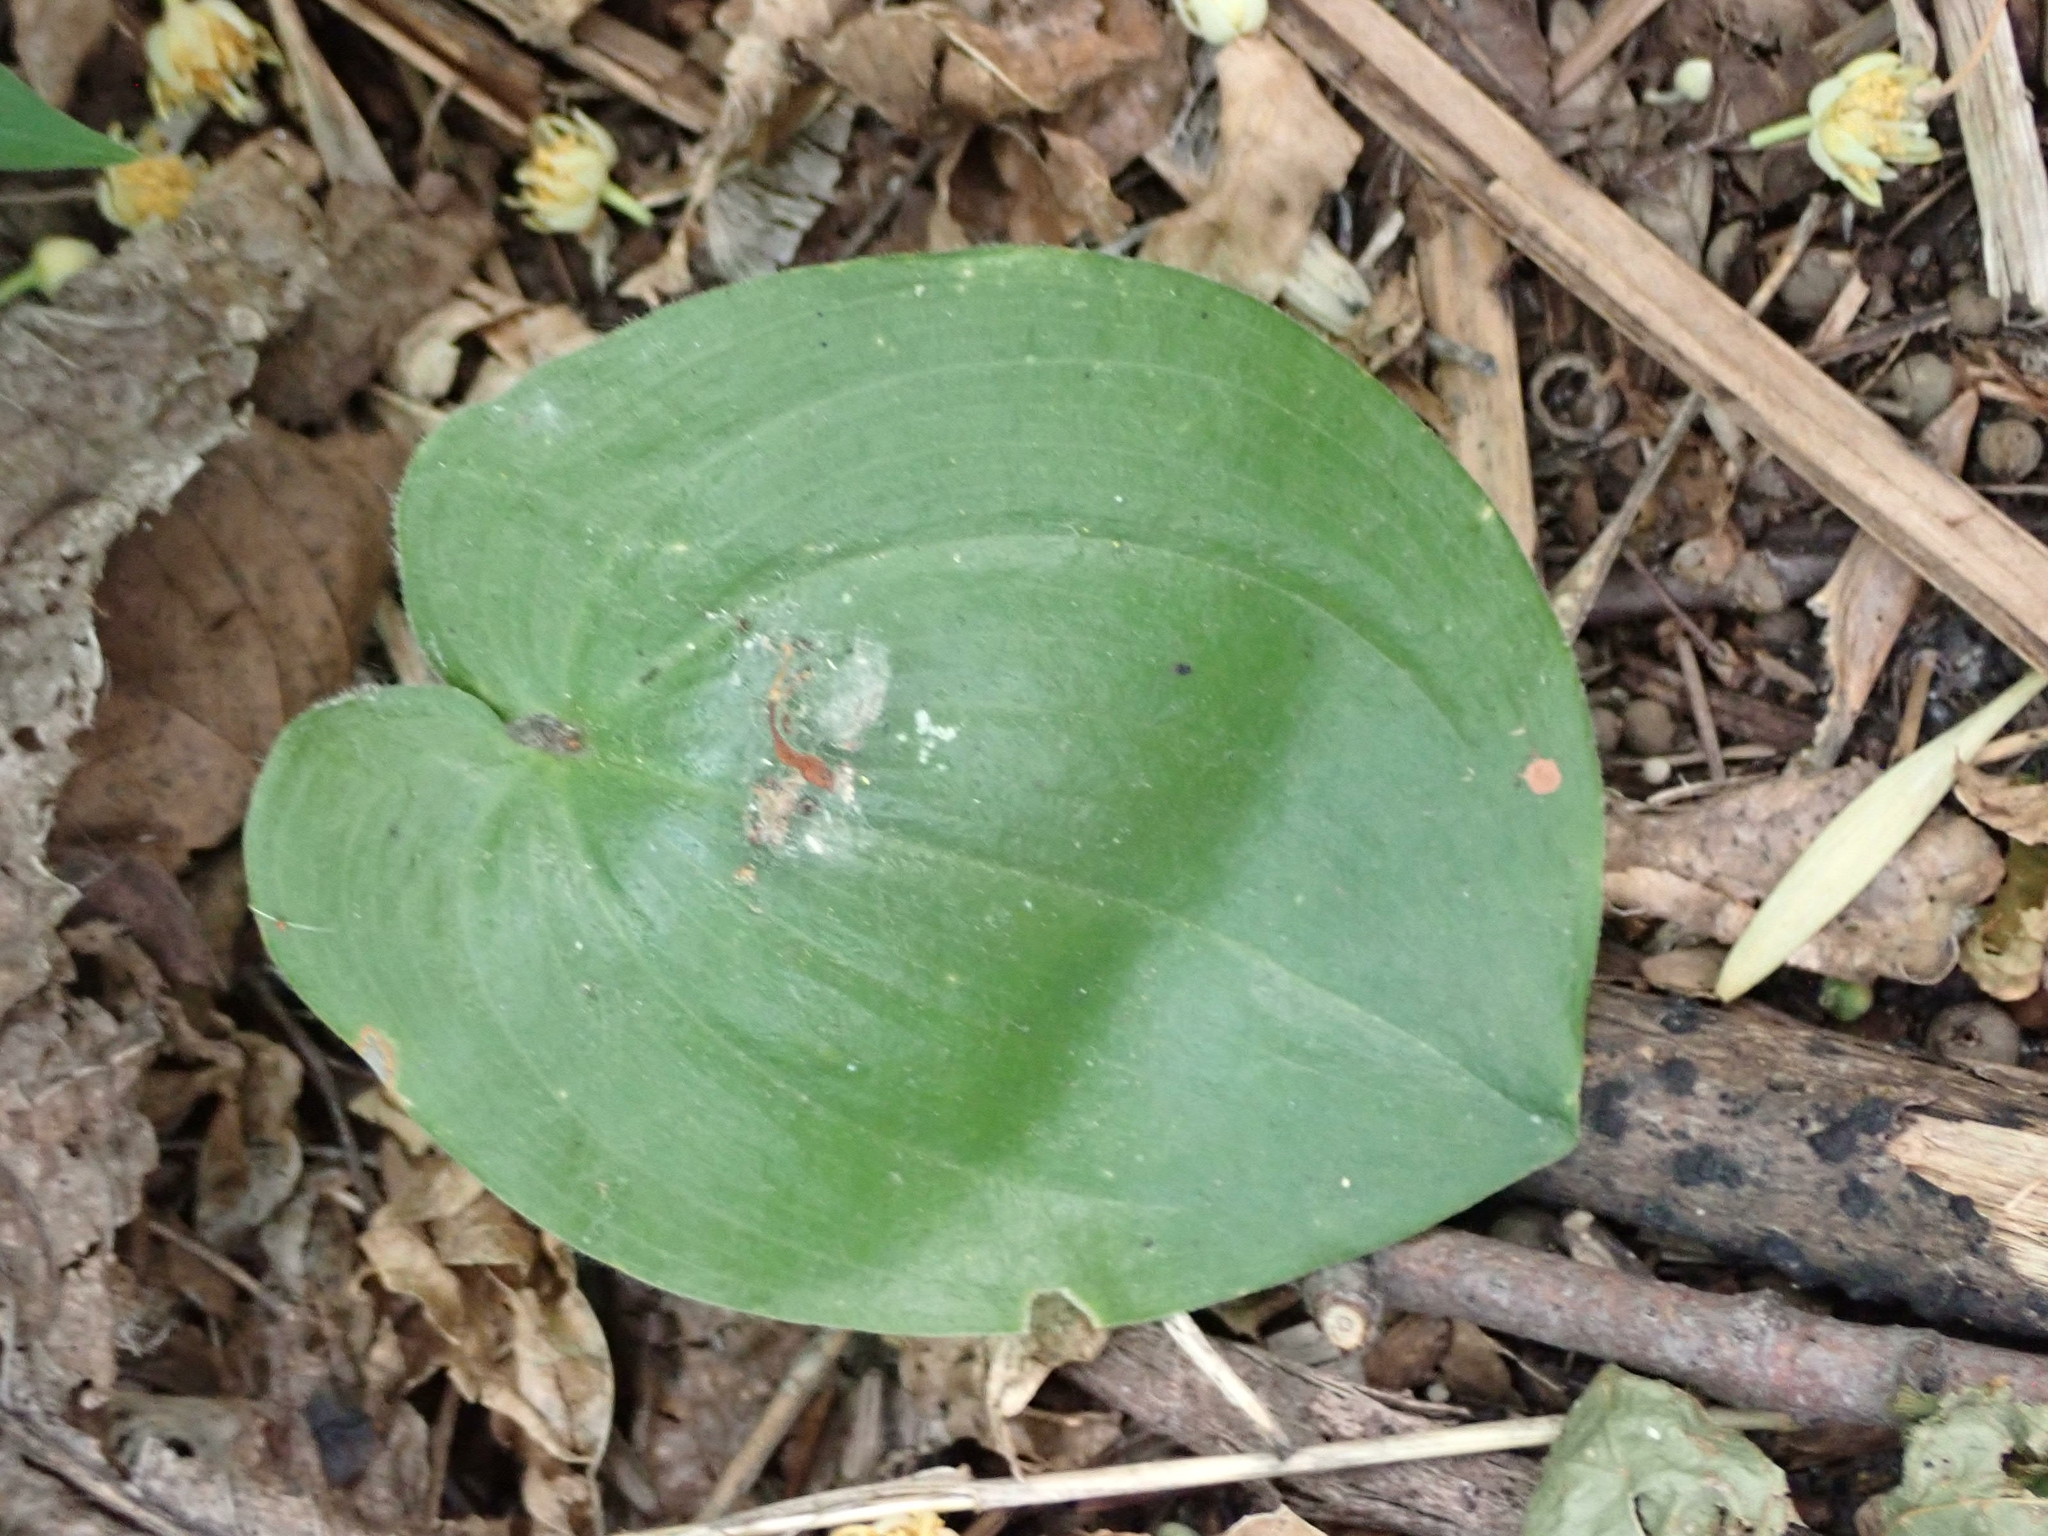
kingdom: Plantae
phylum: Tracheophyta
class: Liliopsida
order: Asparagales
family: Asparagaceae
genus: Maianthemum
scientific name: Maianthemum canadense
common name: False lily-of-the-valley
